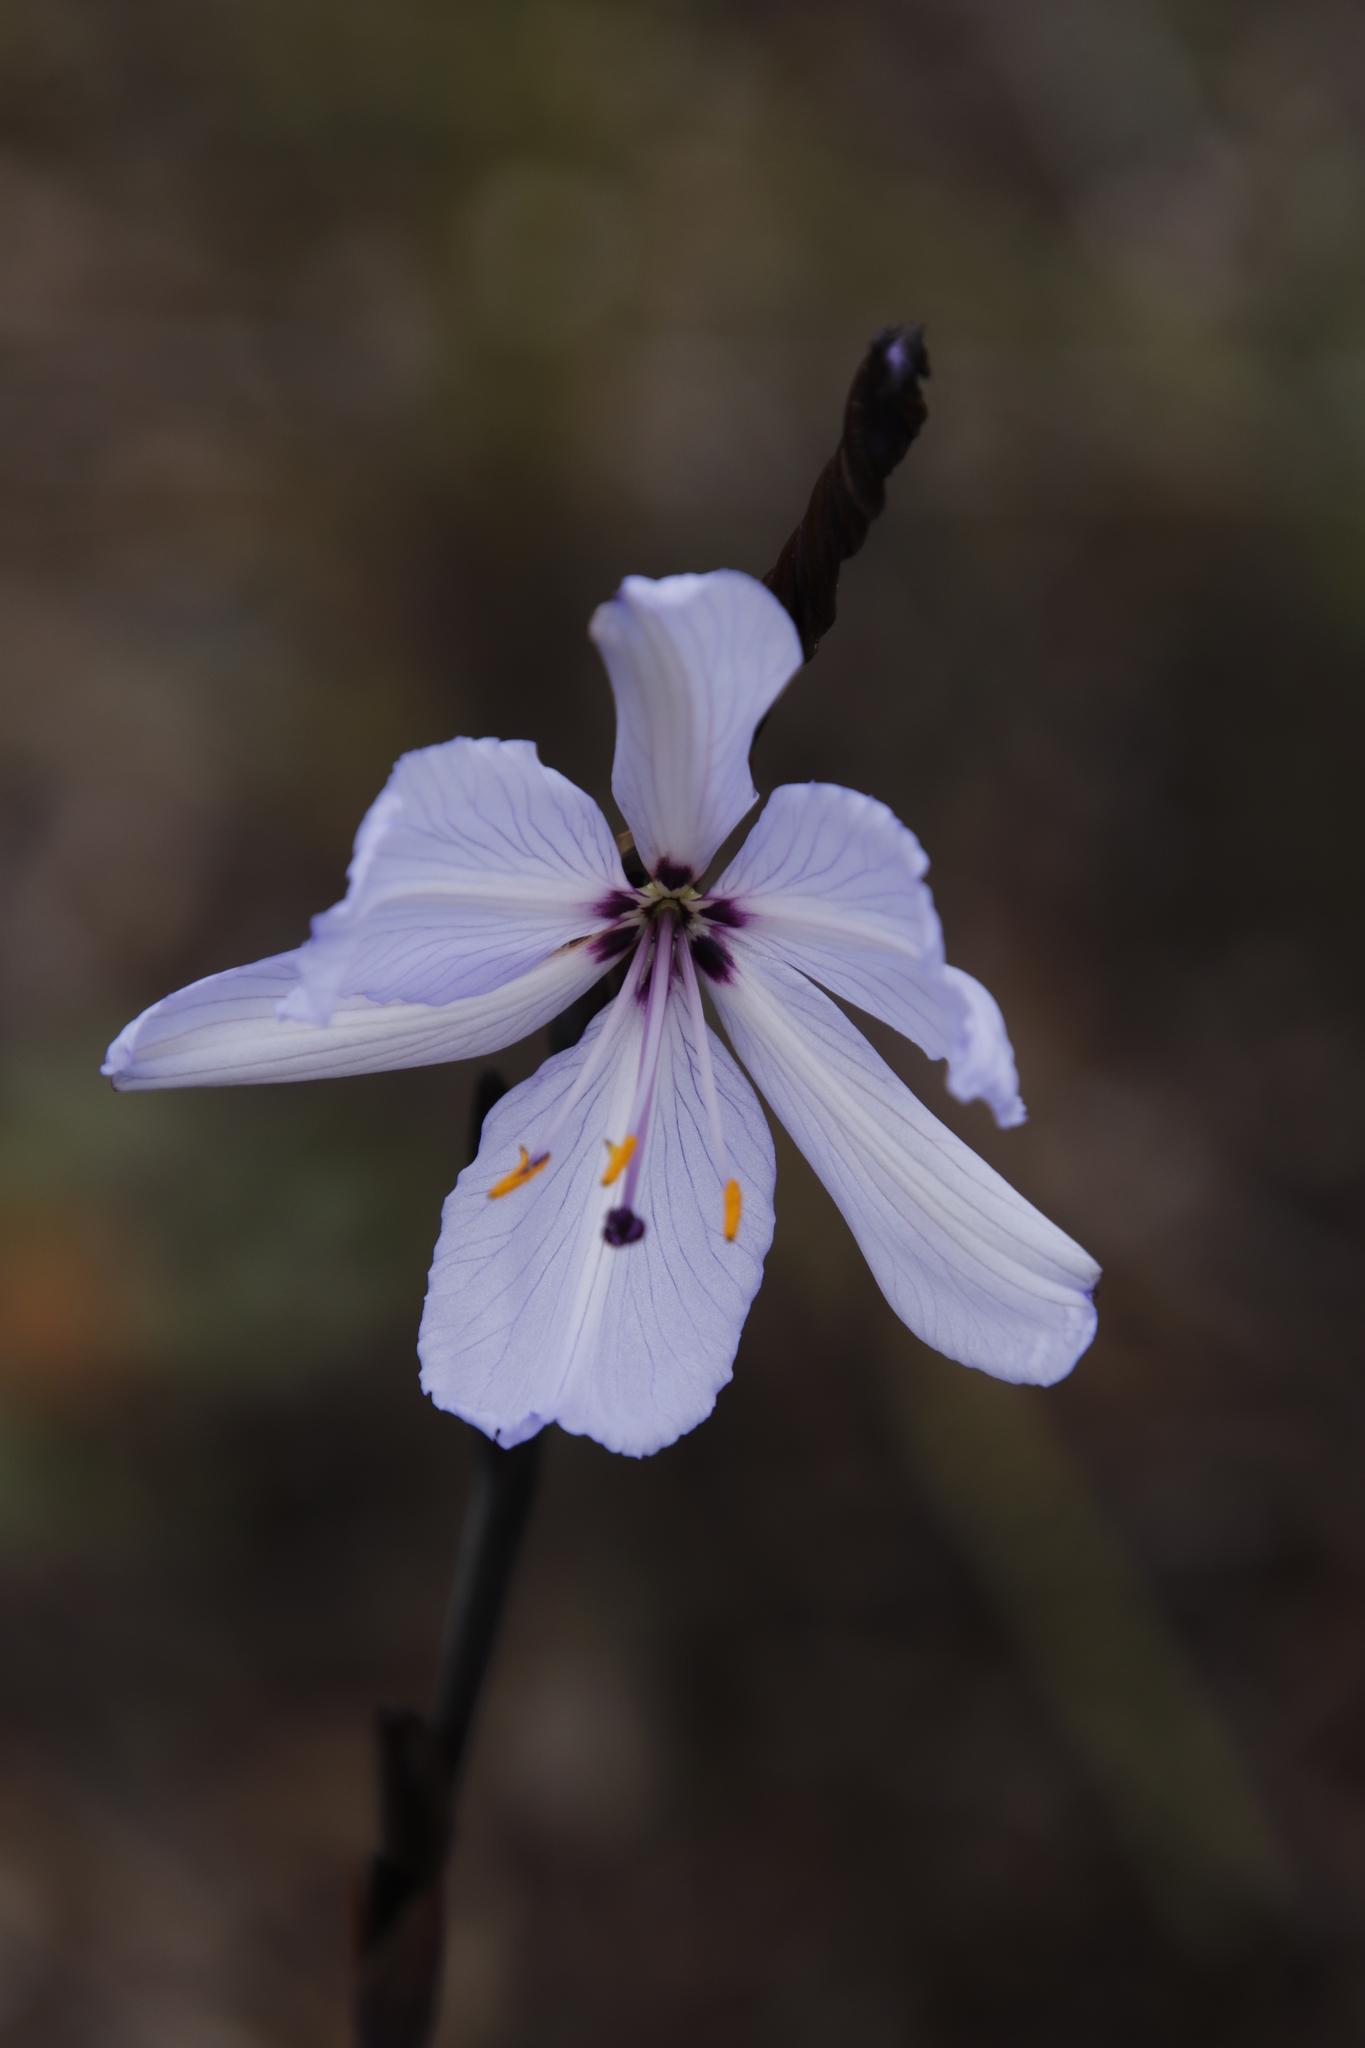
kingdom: Plantae
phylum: Tracheophyta
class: Liliopsida
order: Asparagales
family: Iridaceae
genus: Aristea
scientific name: Aristea spiralis
